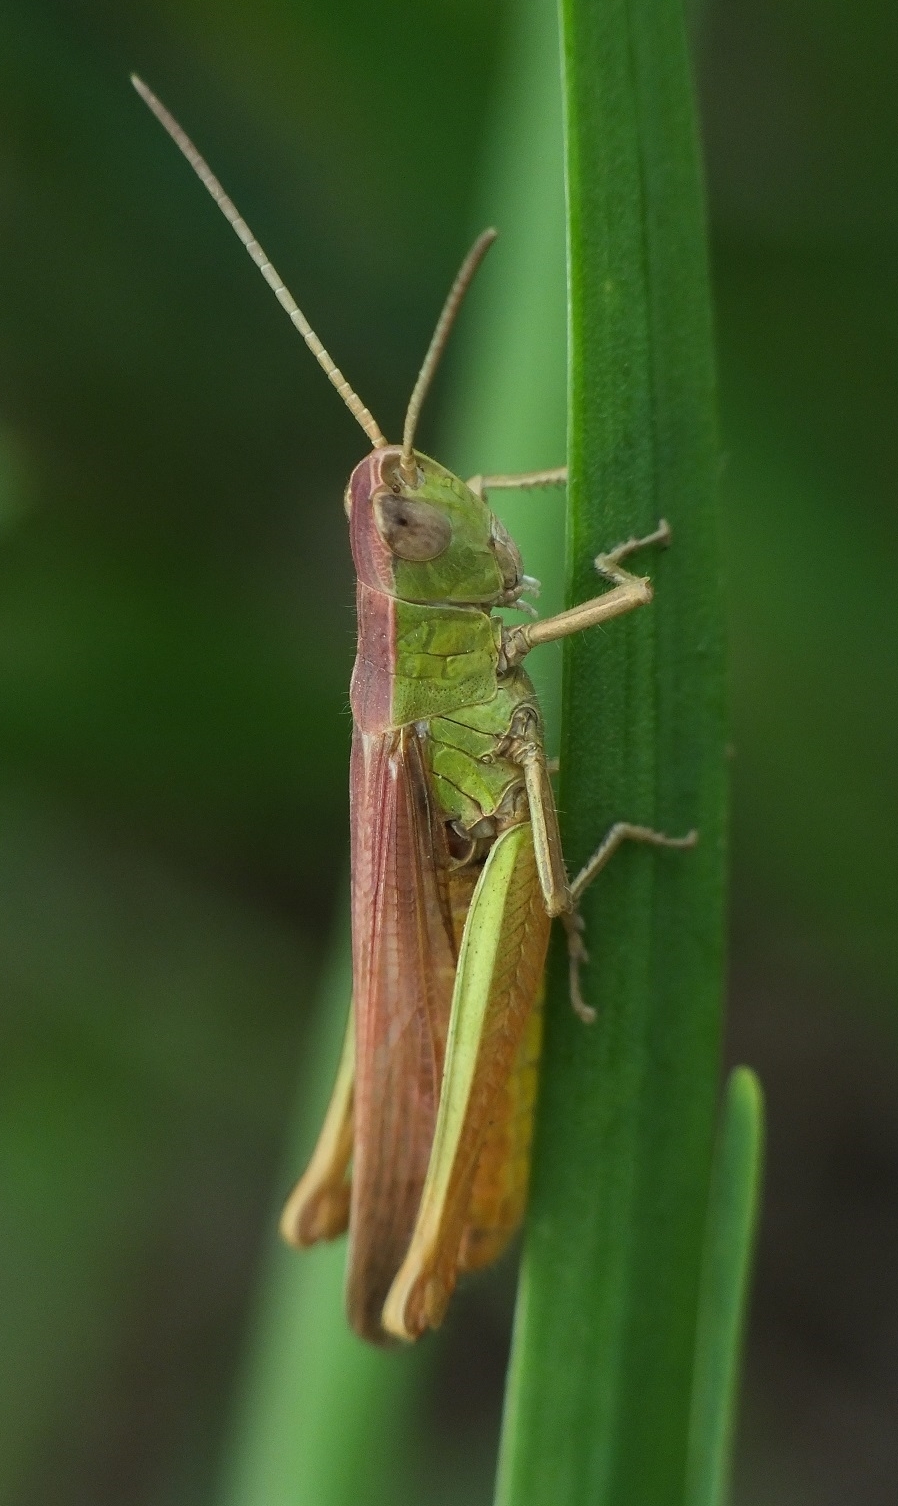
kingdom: Animalia
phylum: Arthropoda
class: Insecta
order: Orthoptera
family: Acrididae
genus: Chorthippus
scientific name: Chorthippus dichrous
